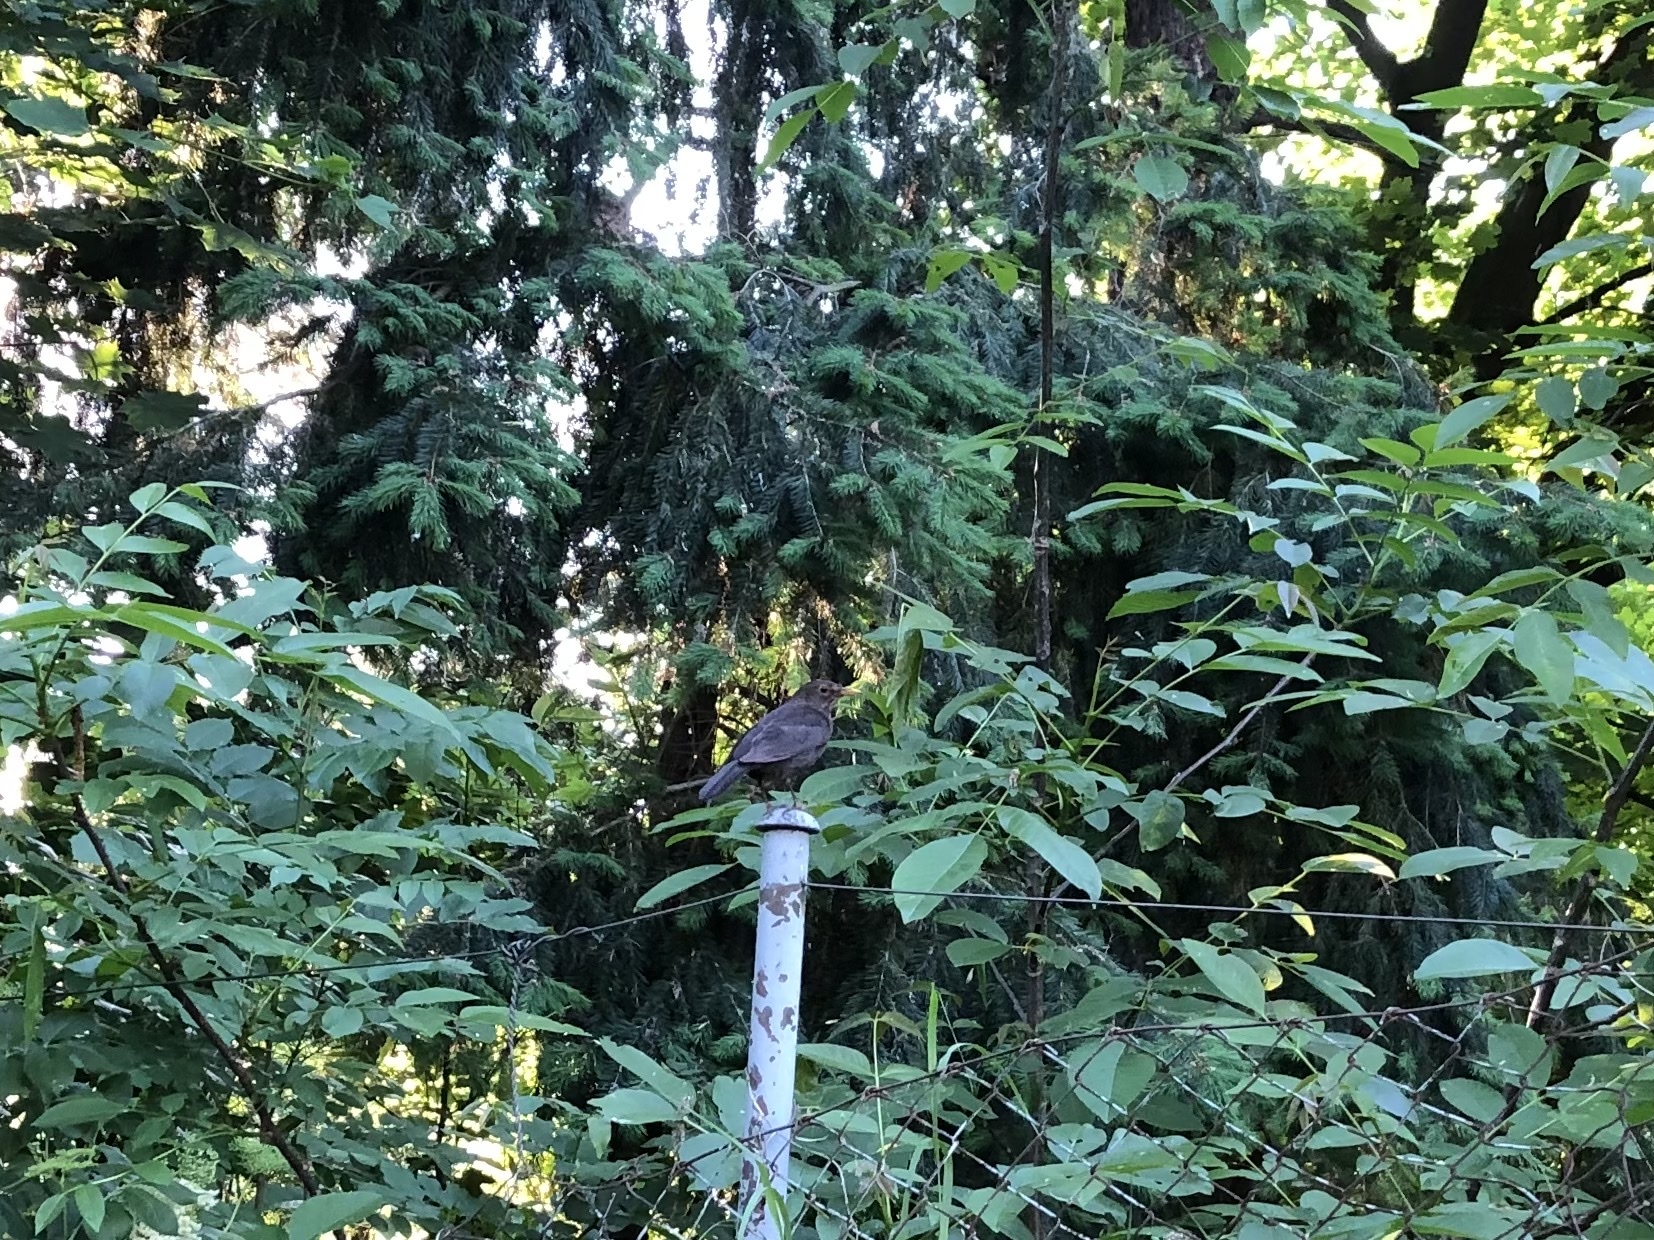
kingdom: Animalia
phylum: Chordata
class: Aves
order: Passeriformes
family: Turdidae
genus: Turdus
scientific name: Turdus merula
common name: Common blackbird
